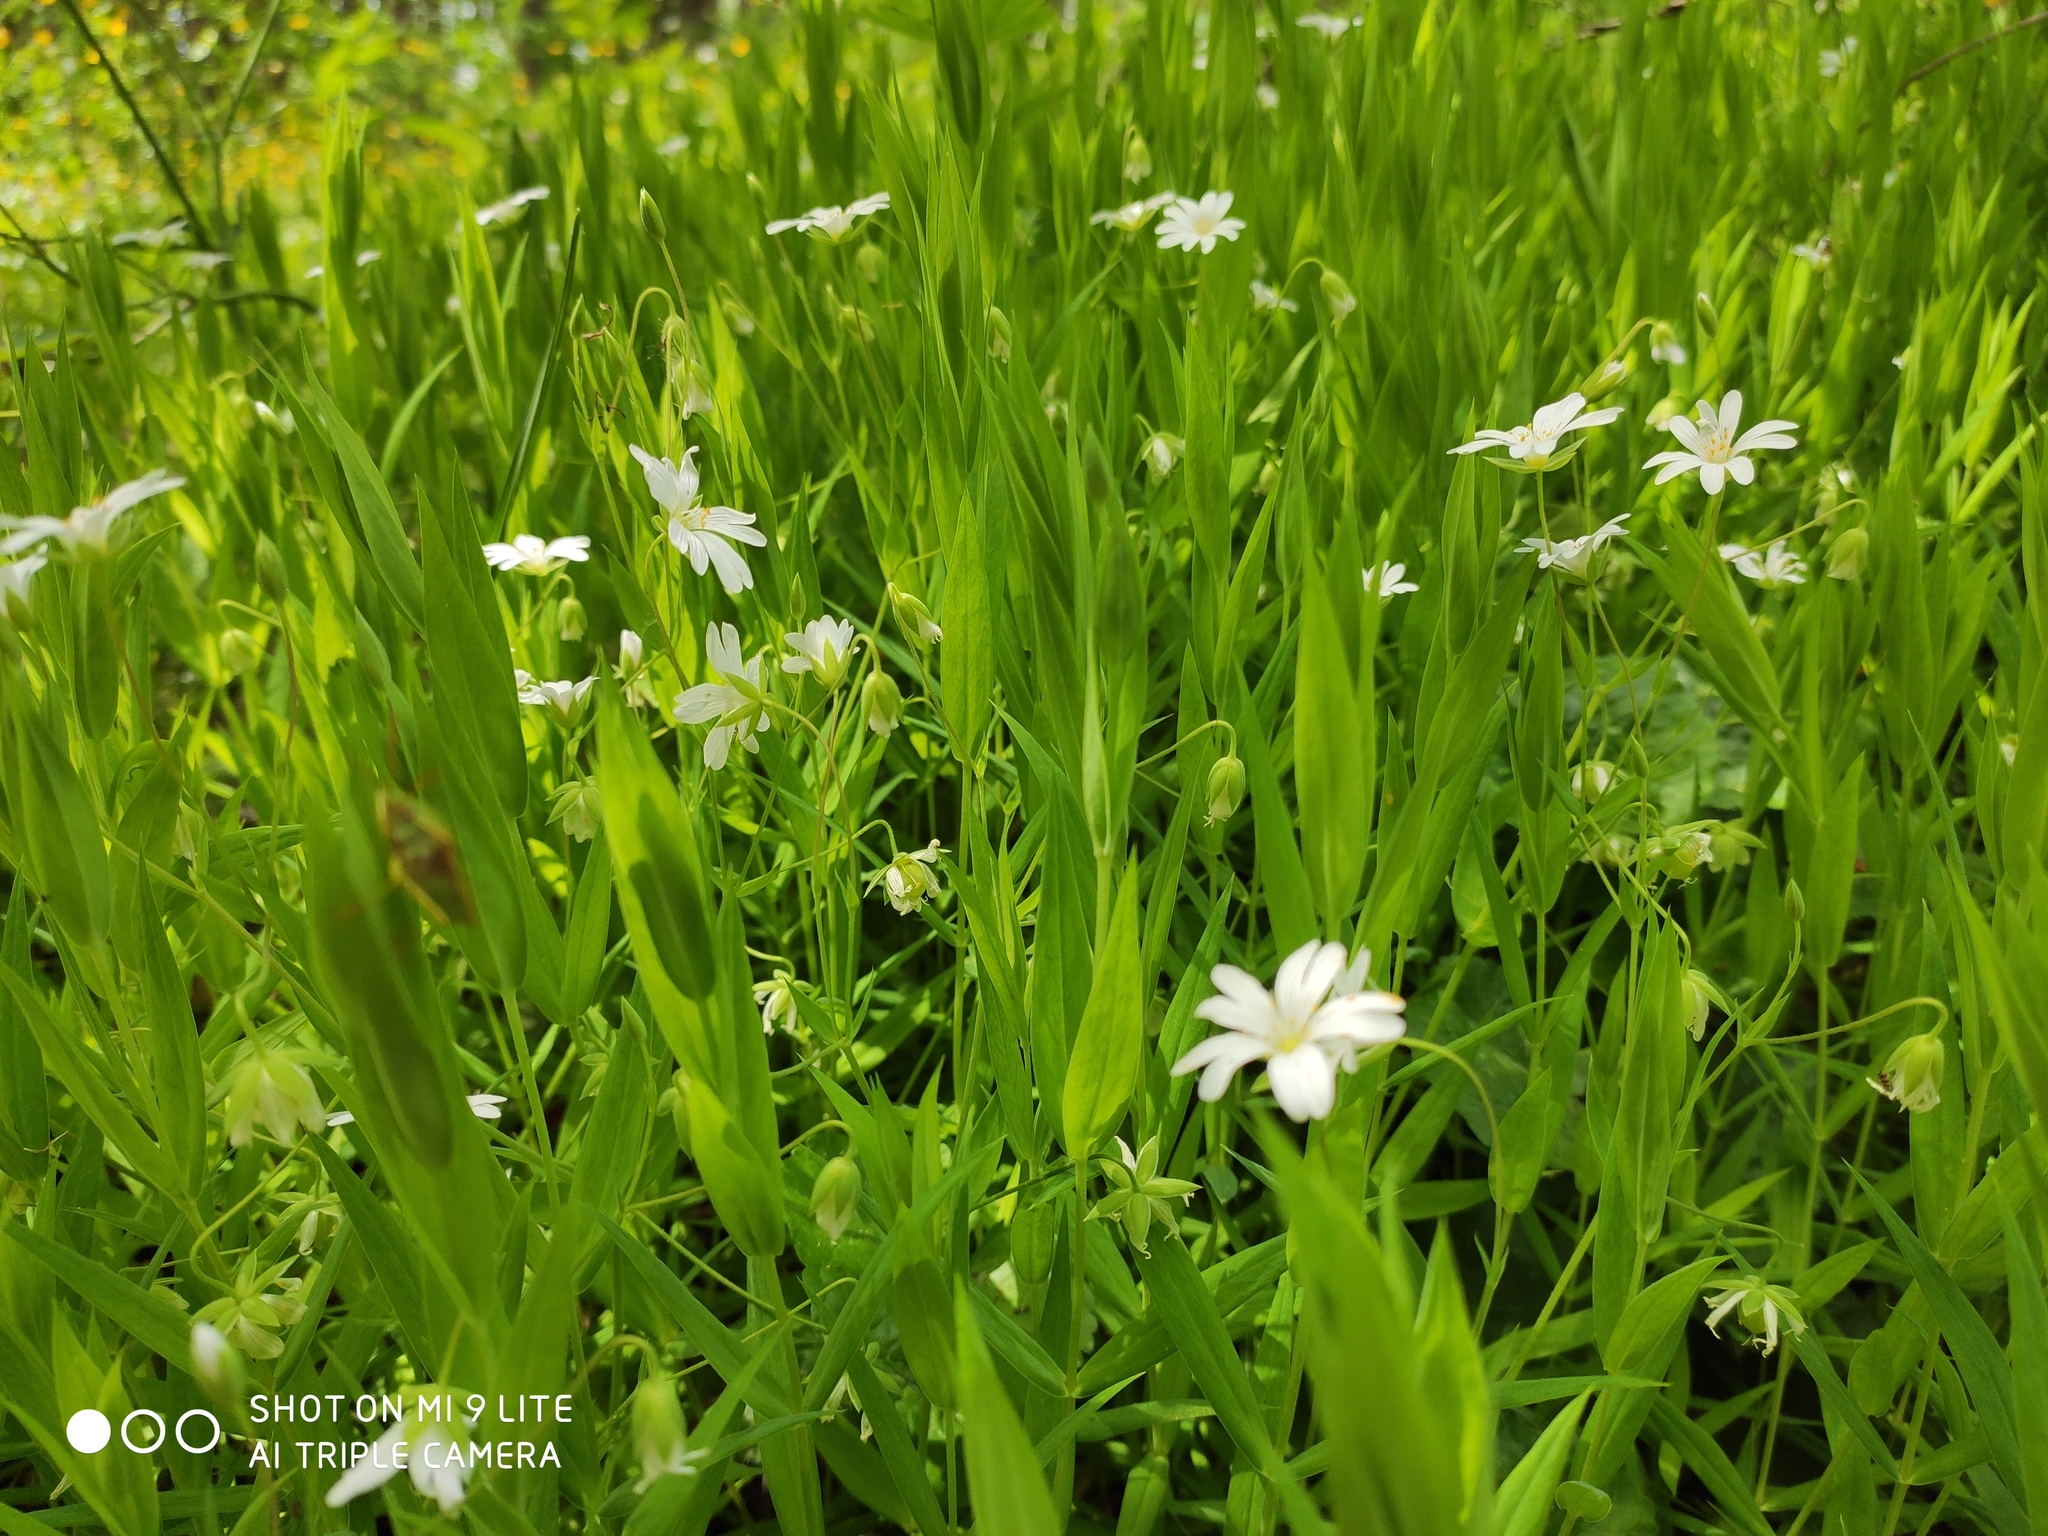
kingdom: Plantae
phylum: Tracheophyta
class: Magnoliopsida
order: Caryophyllales
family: Caryophyllaceae
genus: Rabelera
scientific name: Rabelera holostea
